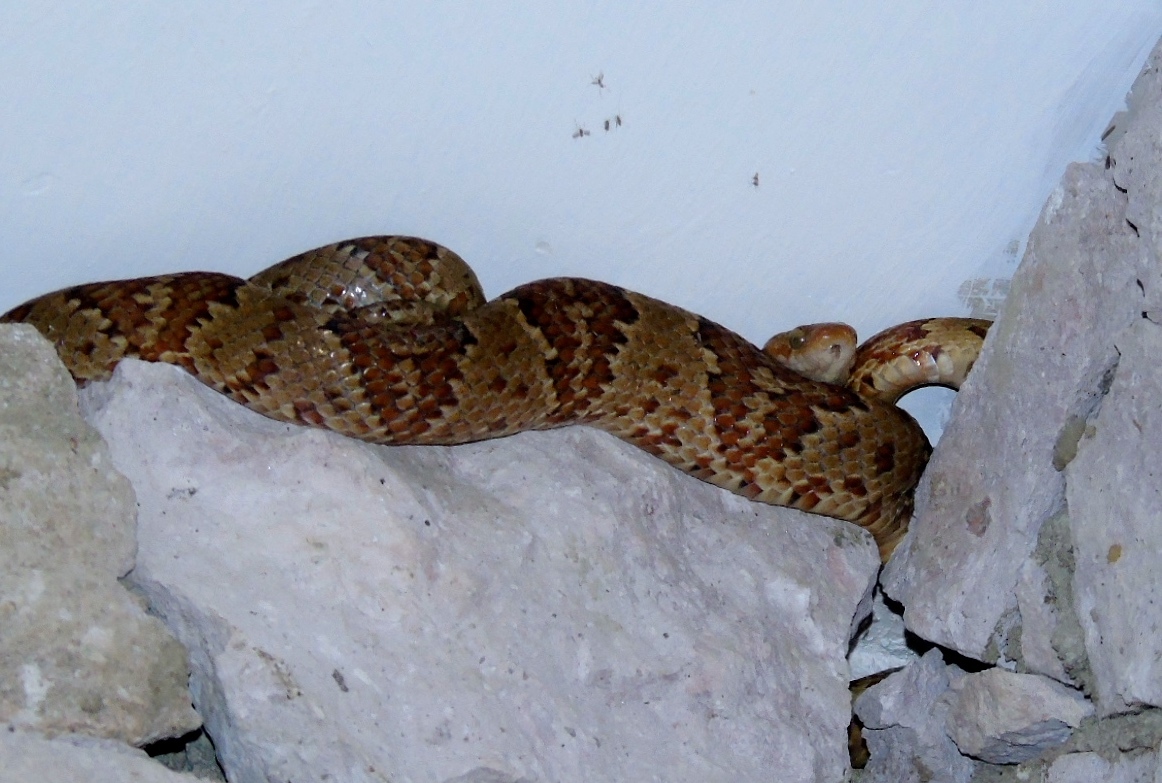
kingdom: Animalia
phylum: Chordata
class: Squamata
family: Colubridae
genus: Trimorphodon
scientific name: Trimorphodon paucimaculatus
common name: Sinaloan lyresnake
